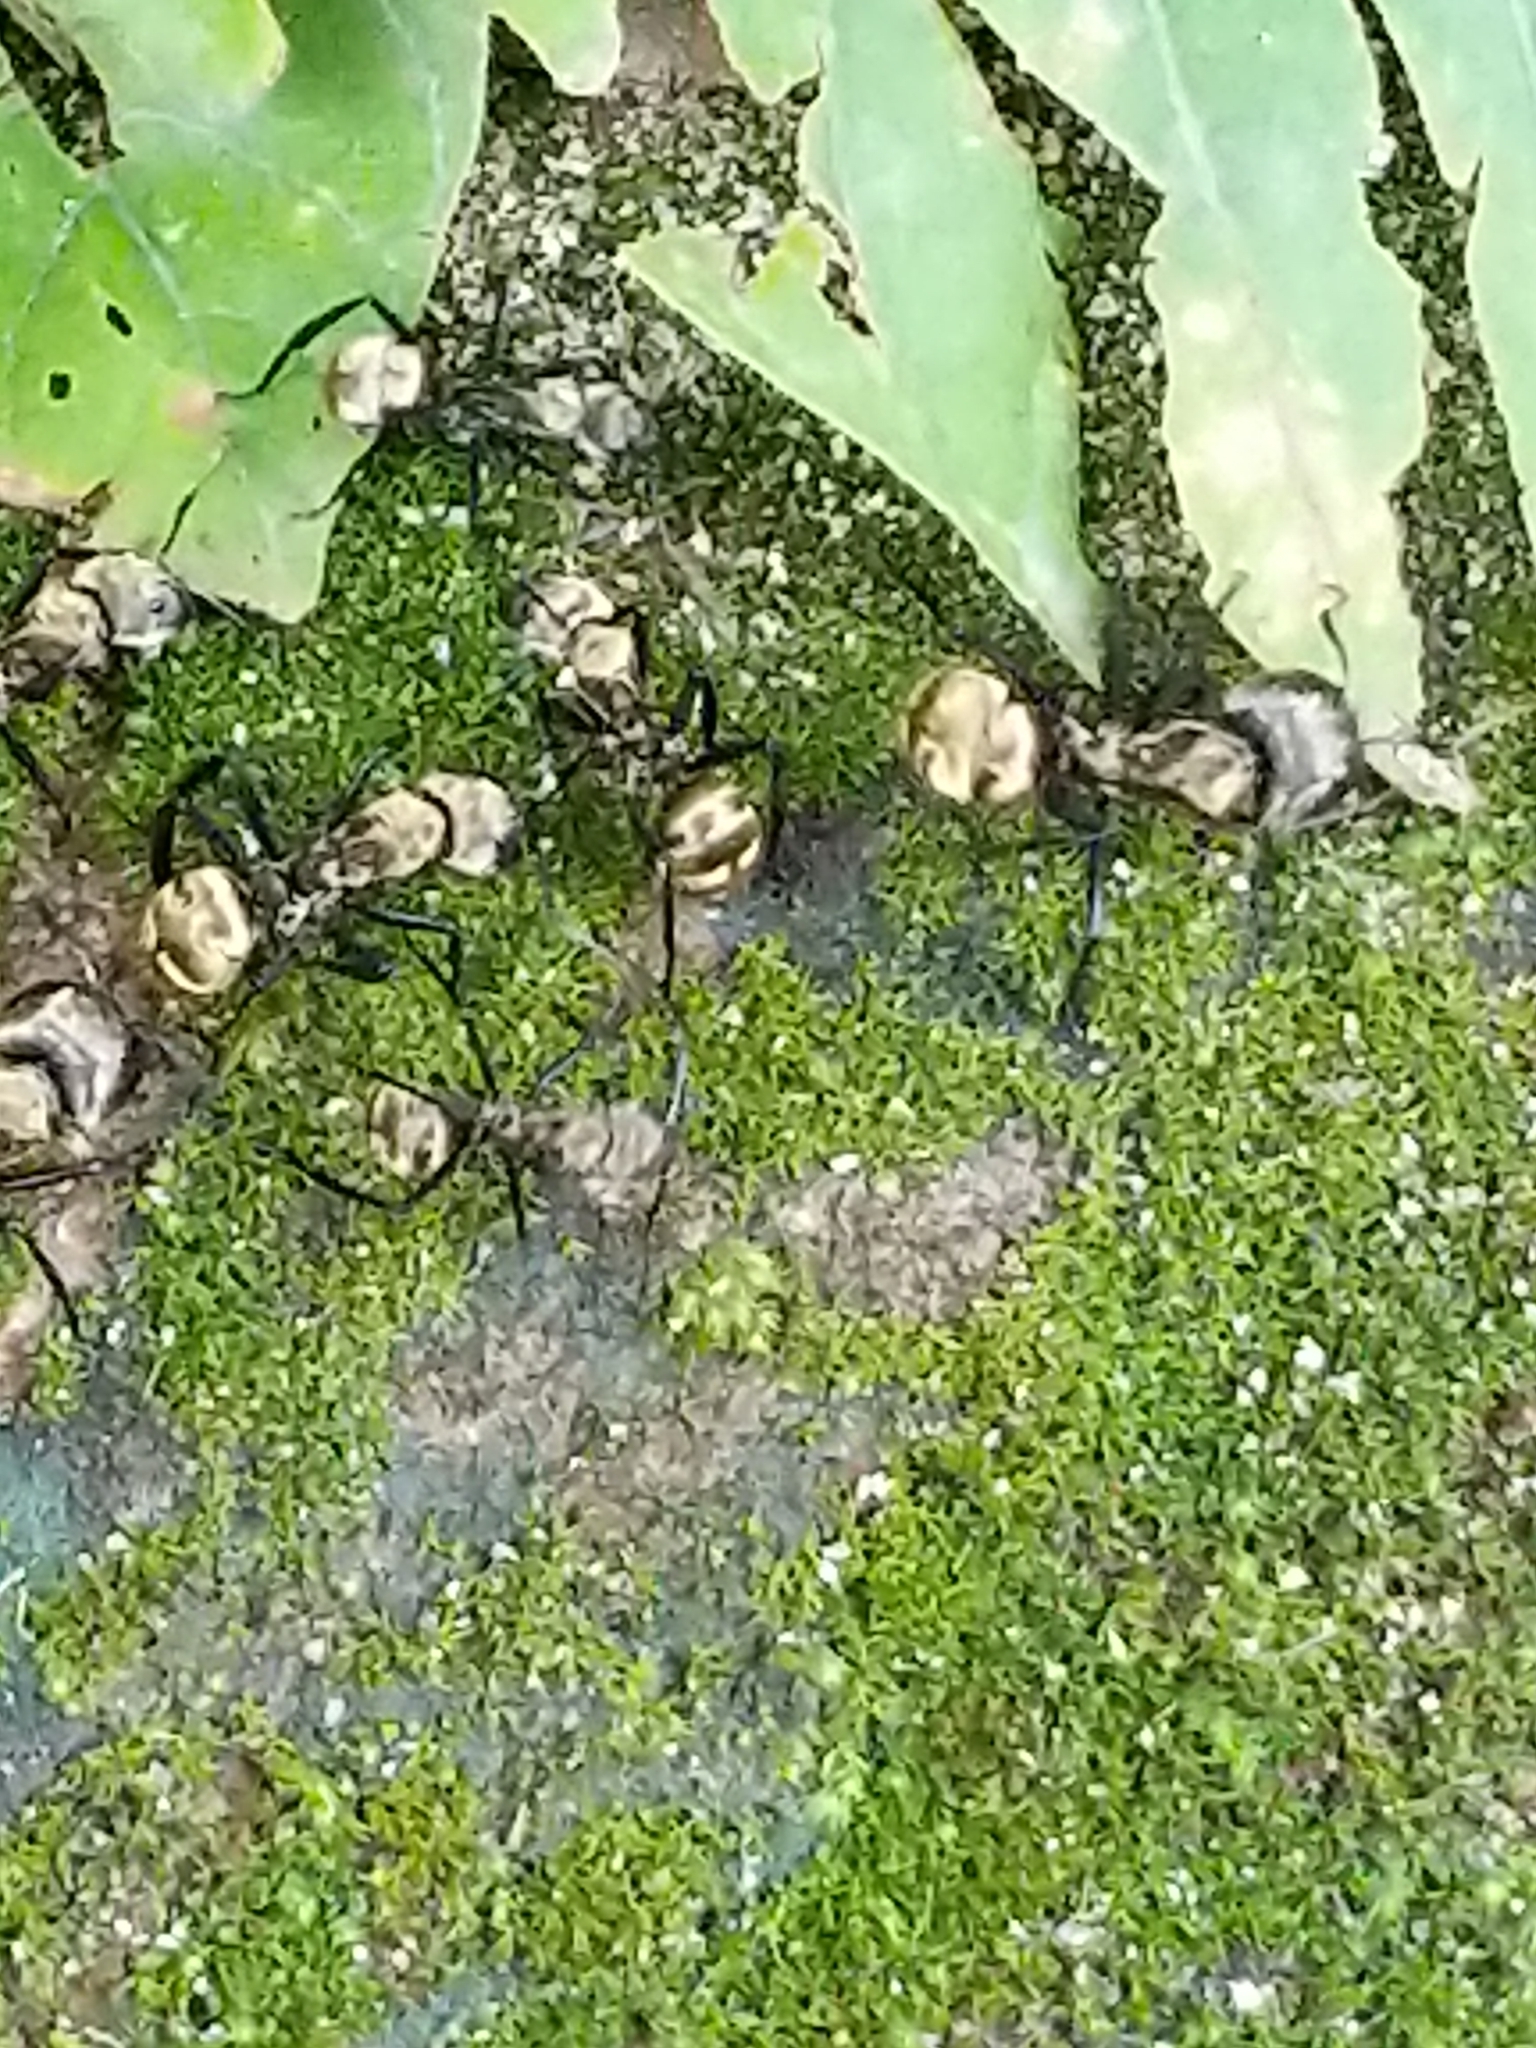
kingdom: Animalia
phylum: Arthropoda
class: Insecta
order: Hymenoptera
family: Formicidae
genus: Camponotus
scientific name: Camponotus sericeiventris
